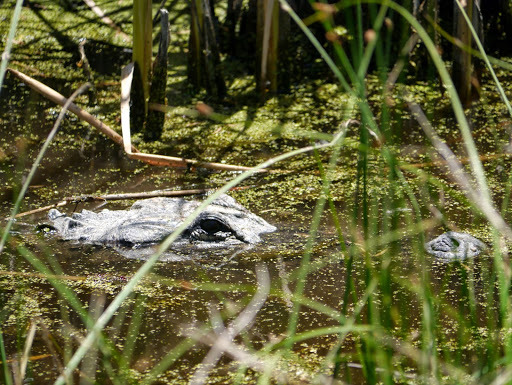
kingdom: Animalia
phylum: Chordata
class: Crocodylia
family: Alligatoridae
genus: Alligator
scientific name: Alligator mississippiensis
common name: American alligator
